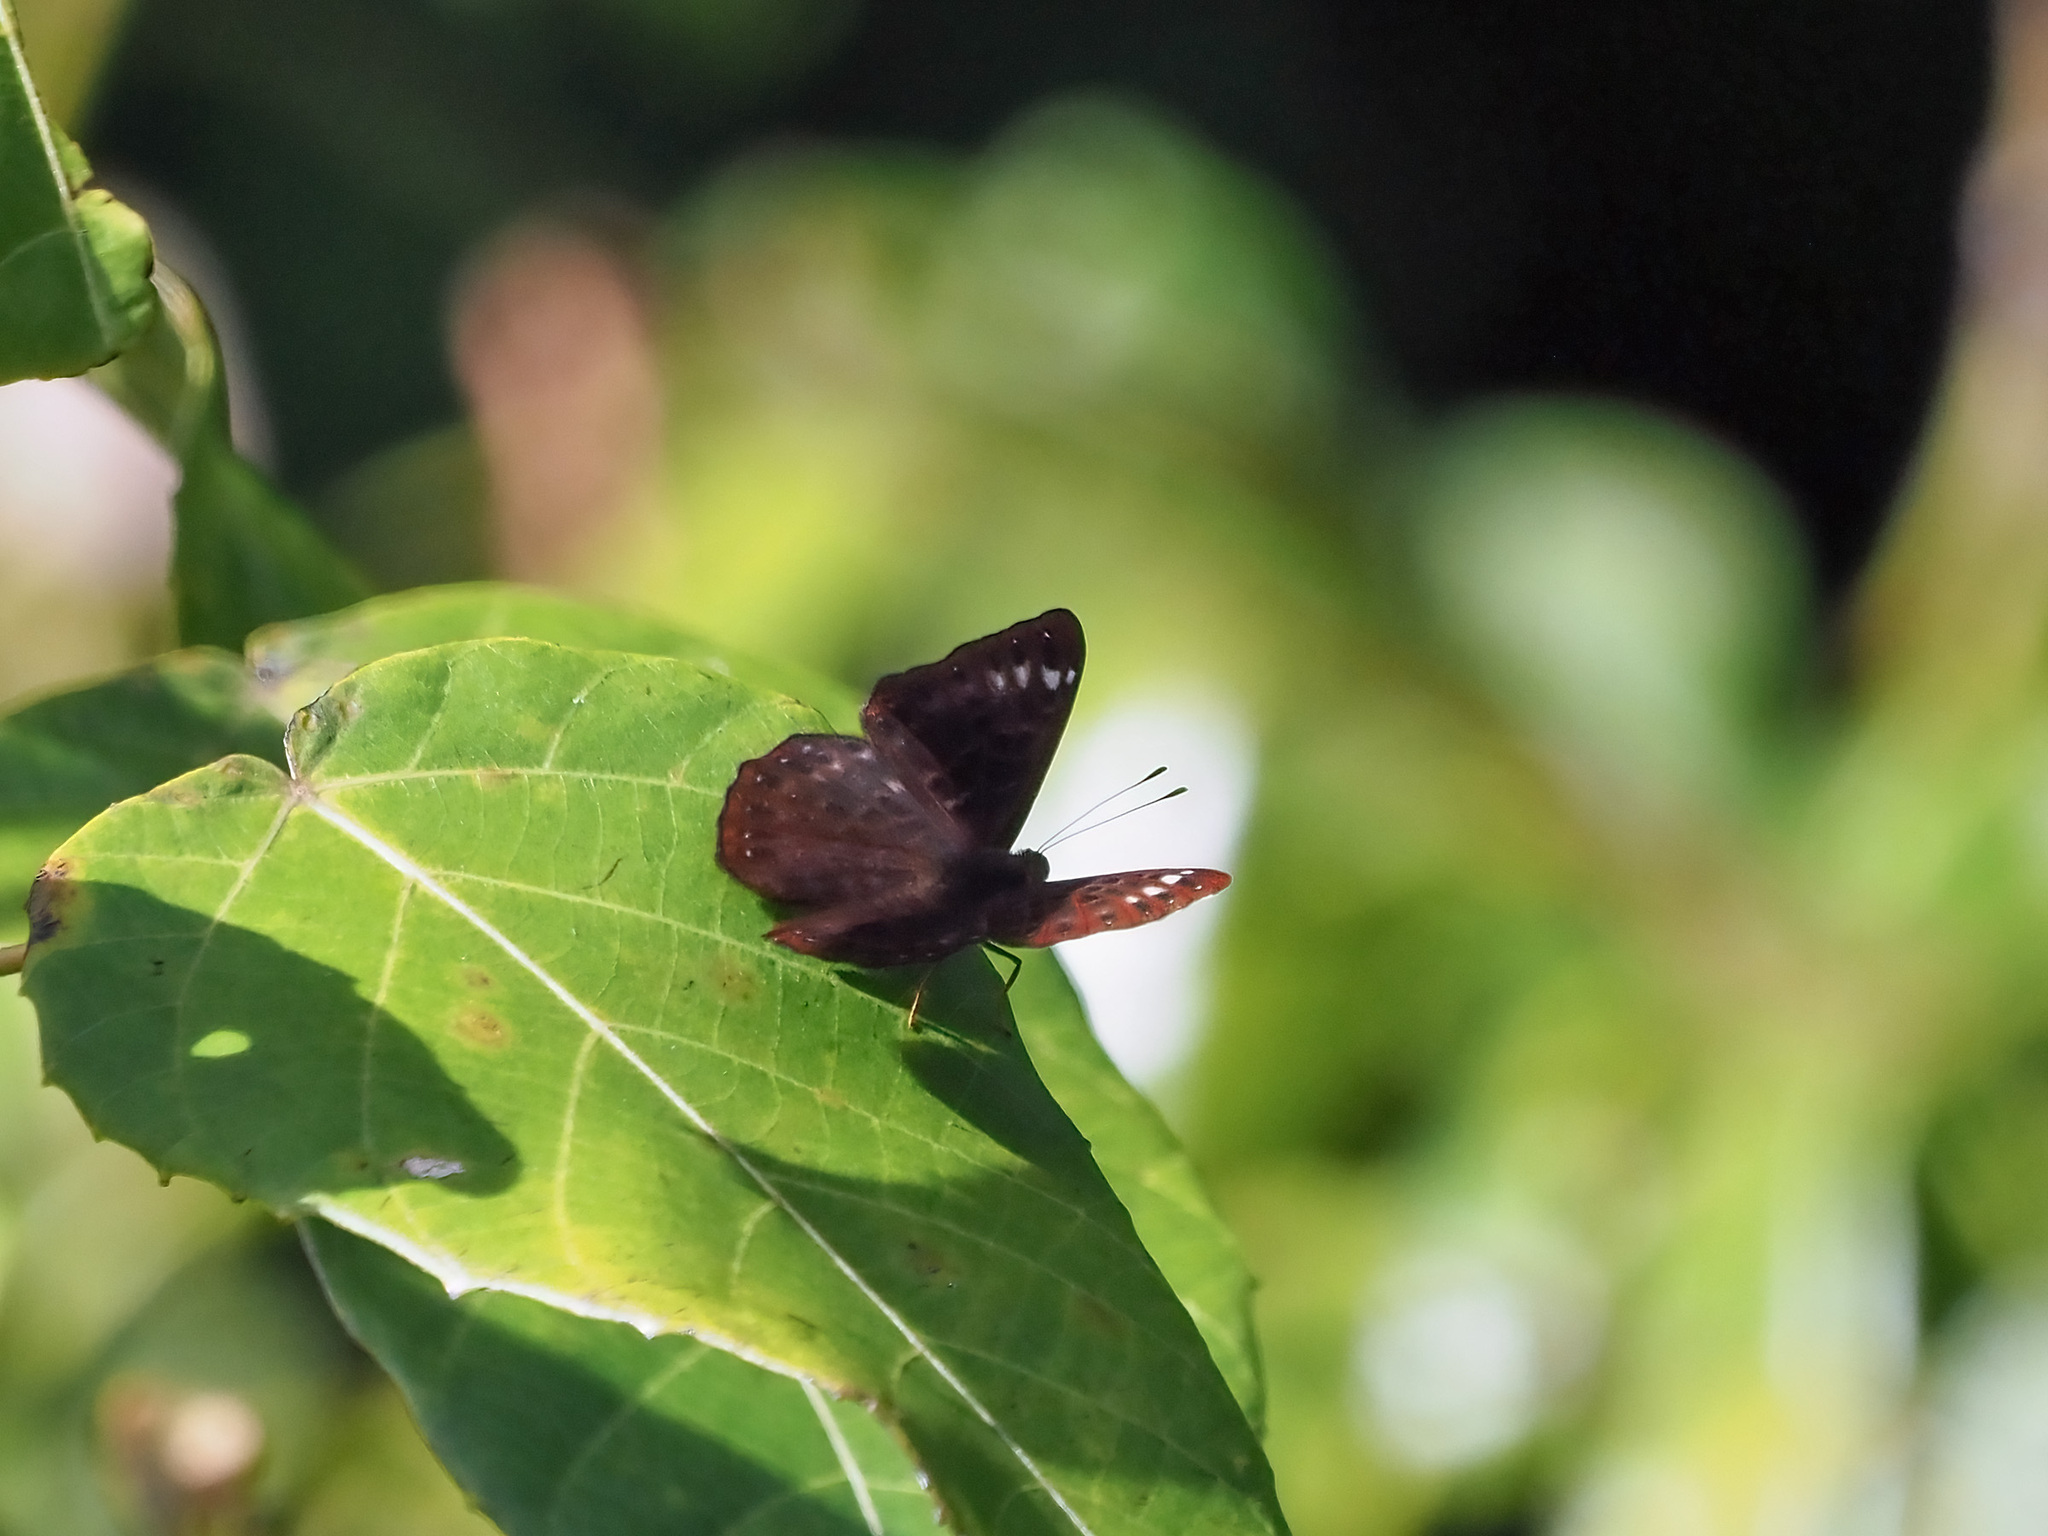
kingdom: Animalia
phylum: Arthropoda
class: Insecta
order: Lepidoptera
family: Riodinidae
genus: Zemeros
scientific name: Zemeros flegyas
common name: Punchinello
